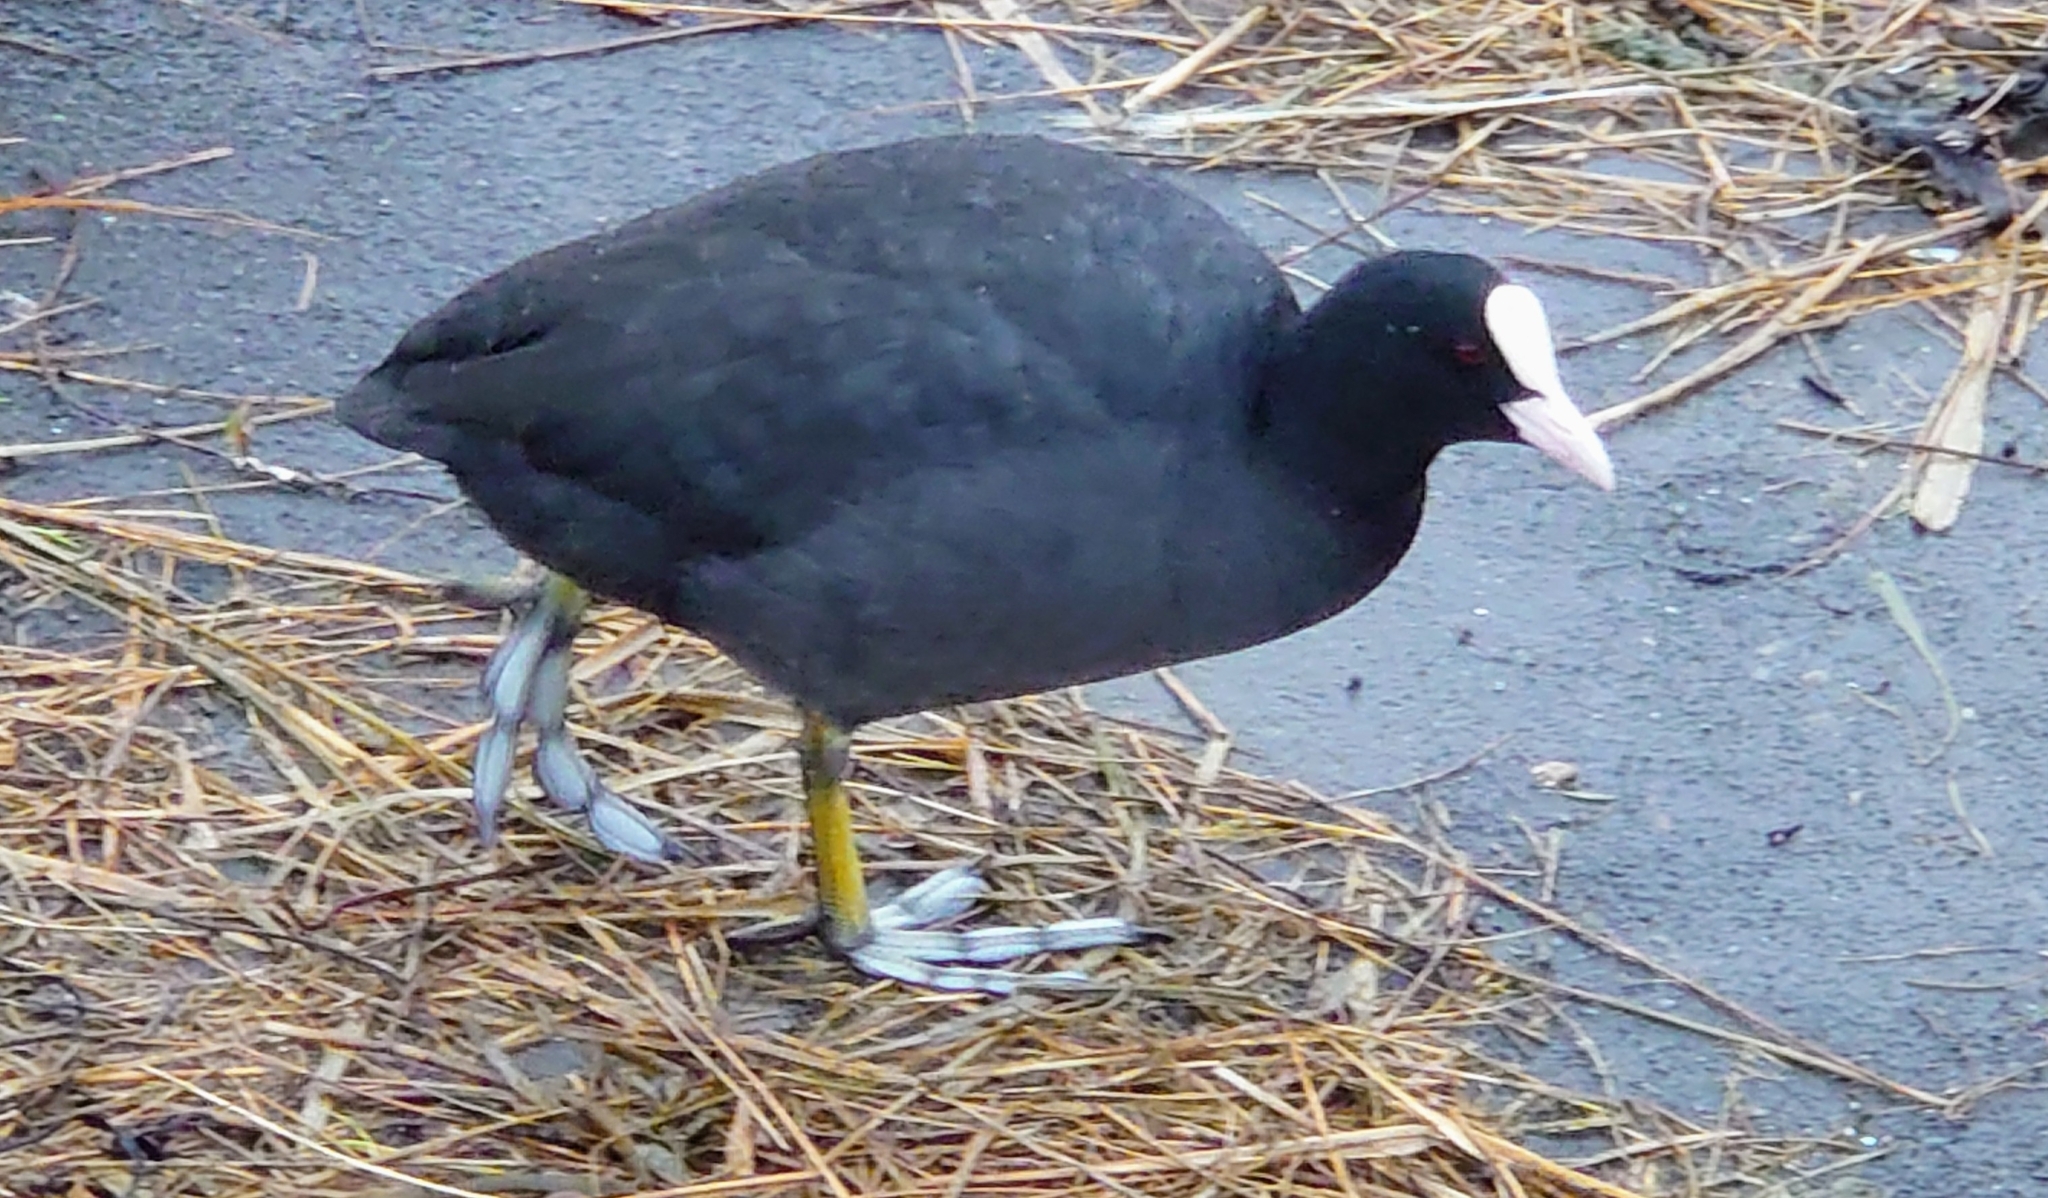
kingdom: Animalia
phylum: Chordata
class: Aves
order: Gruiformes
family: Rallidae
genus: Fulica
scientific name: Fulica atra
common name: Eurasian coot
